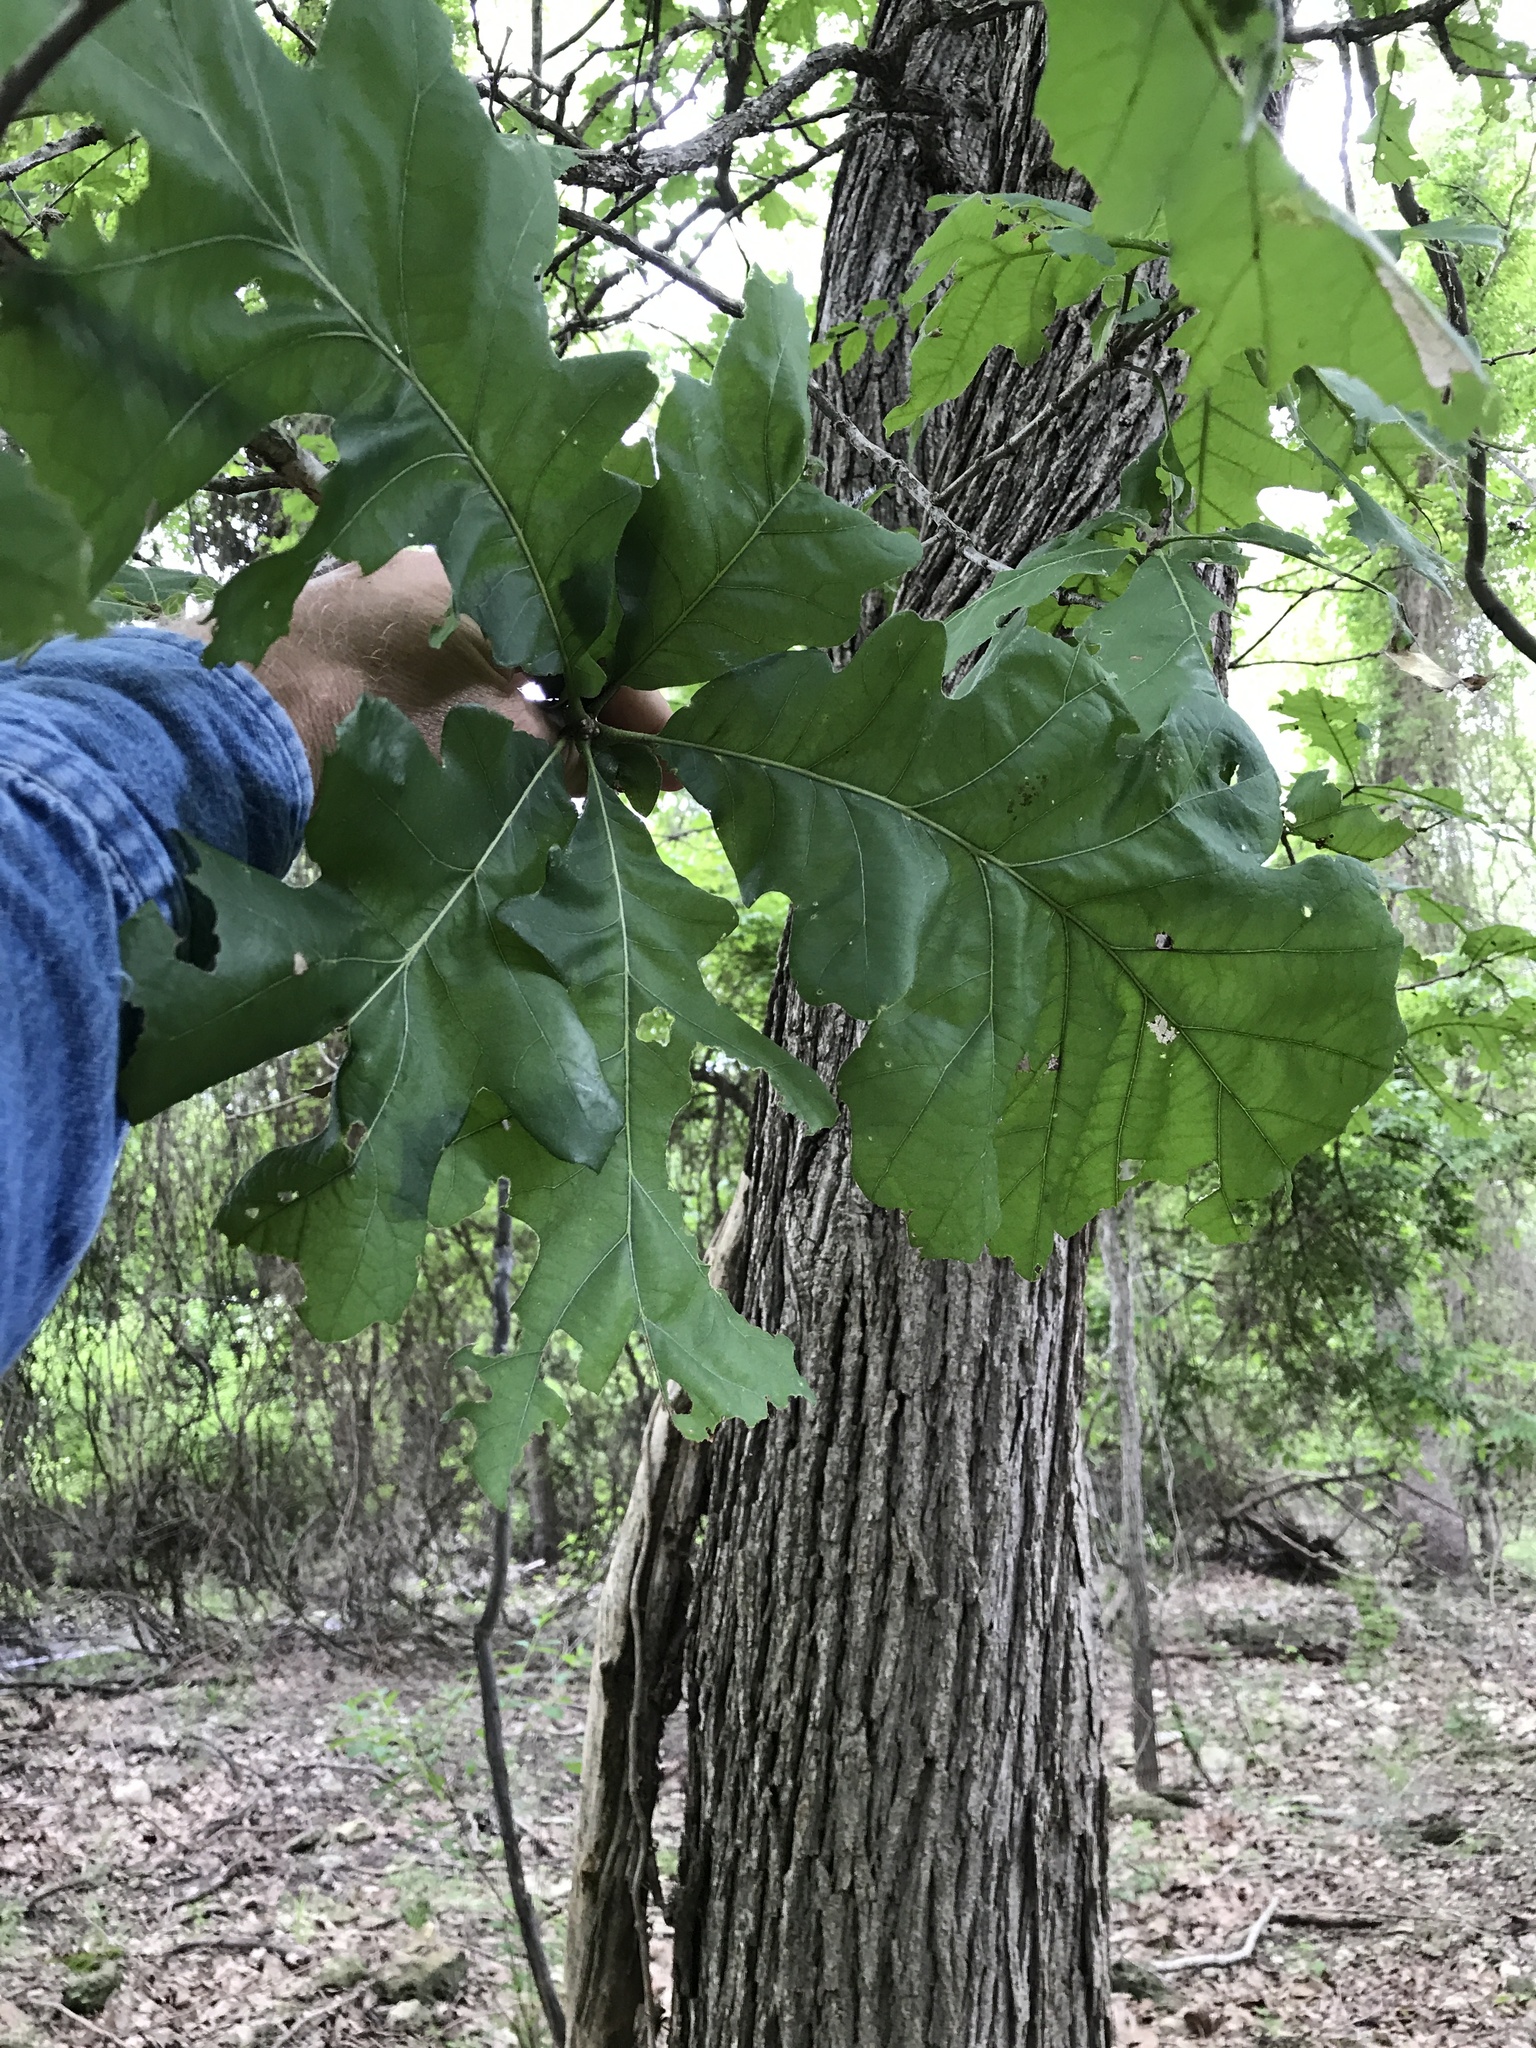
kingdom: Plantae
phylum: Tracheophyta
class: Magnoliopsida
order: Fagales
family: Fagaceae
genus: Quercus
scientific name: Quercus macrocarpa
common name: Bur oak
